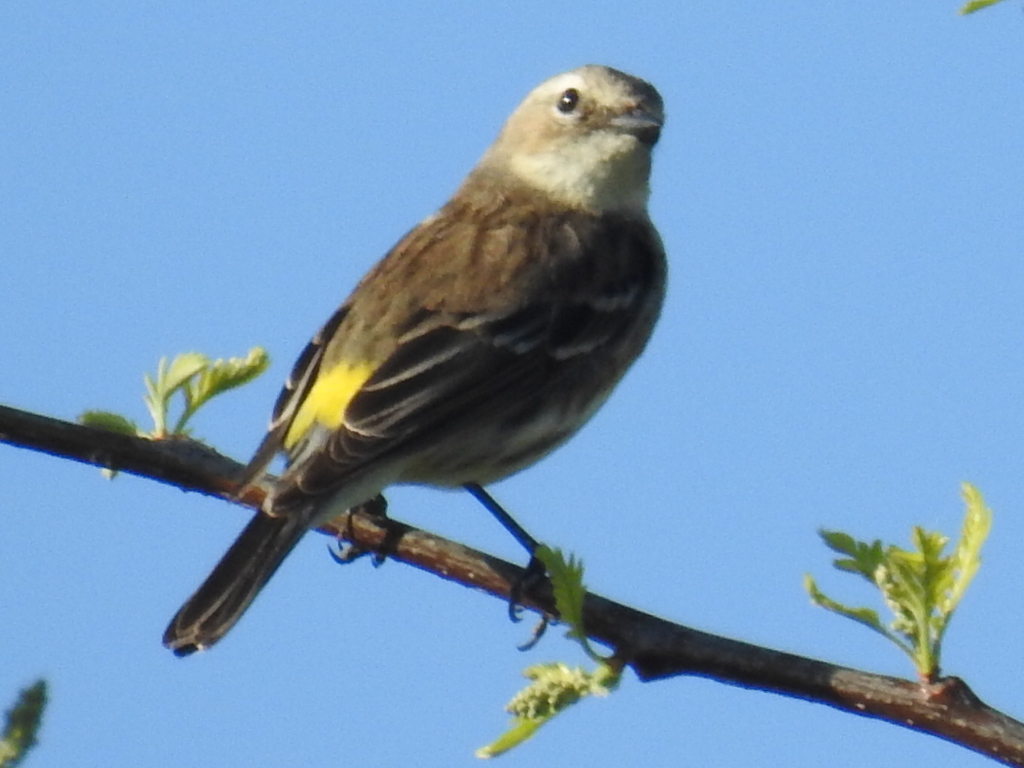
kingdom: Animalia
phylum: Chordata
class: Aves
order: Passeriformes
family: Parulidae
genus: Setophaga
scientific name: Setophaga coronata
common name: Myrtle warbler
